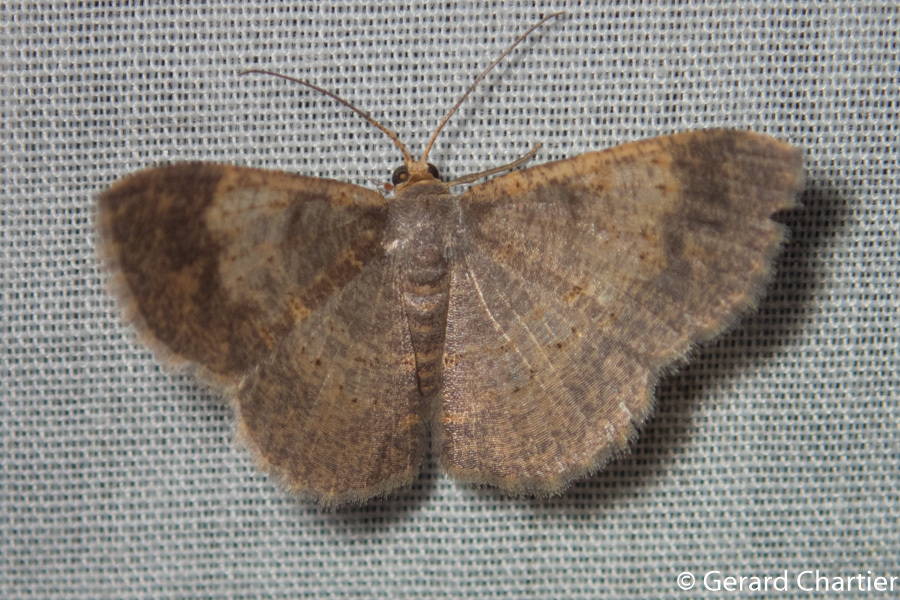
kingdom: Animalia
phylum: Arthropoda
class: Insecta
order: Lepidoptera
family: Geometridae
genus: Peratophyga
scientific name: Peratophyga crista
